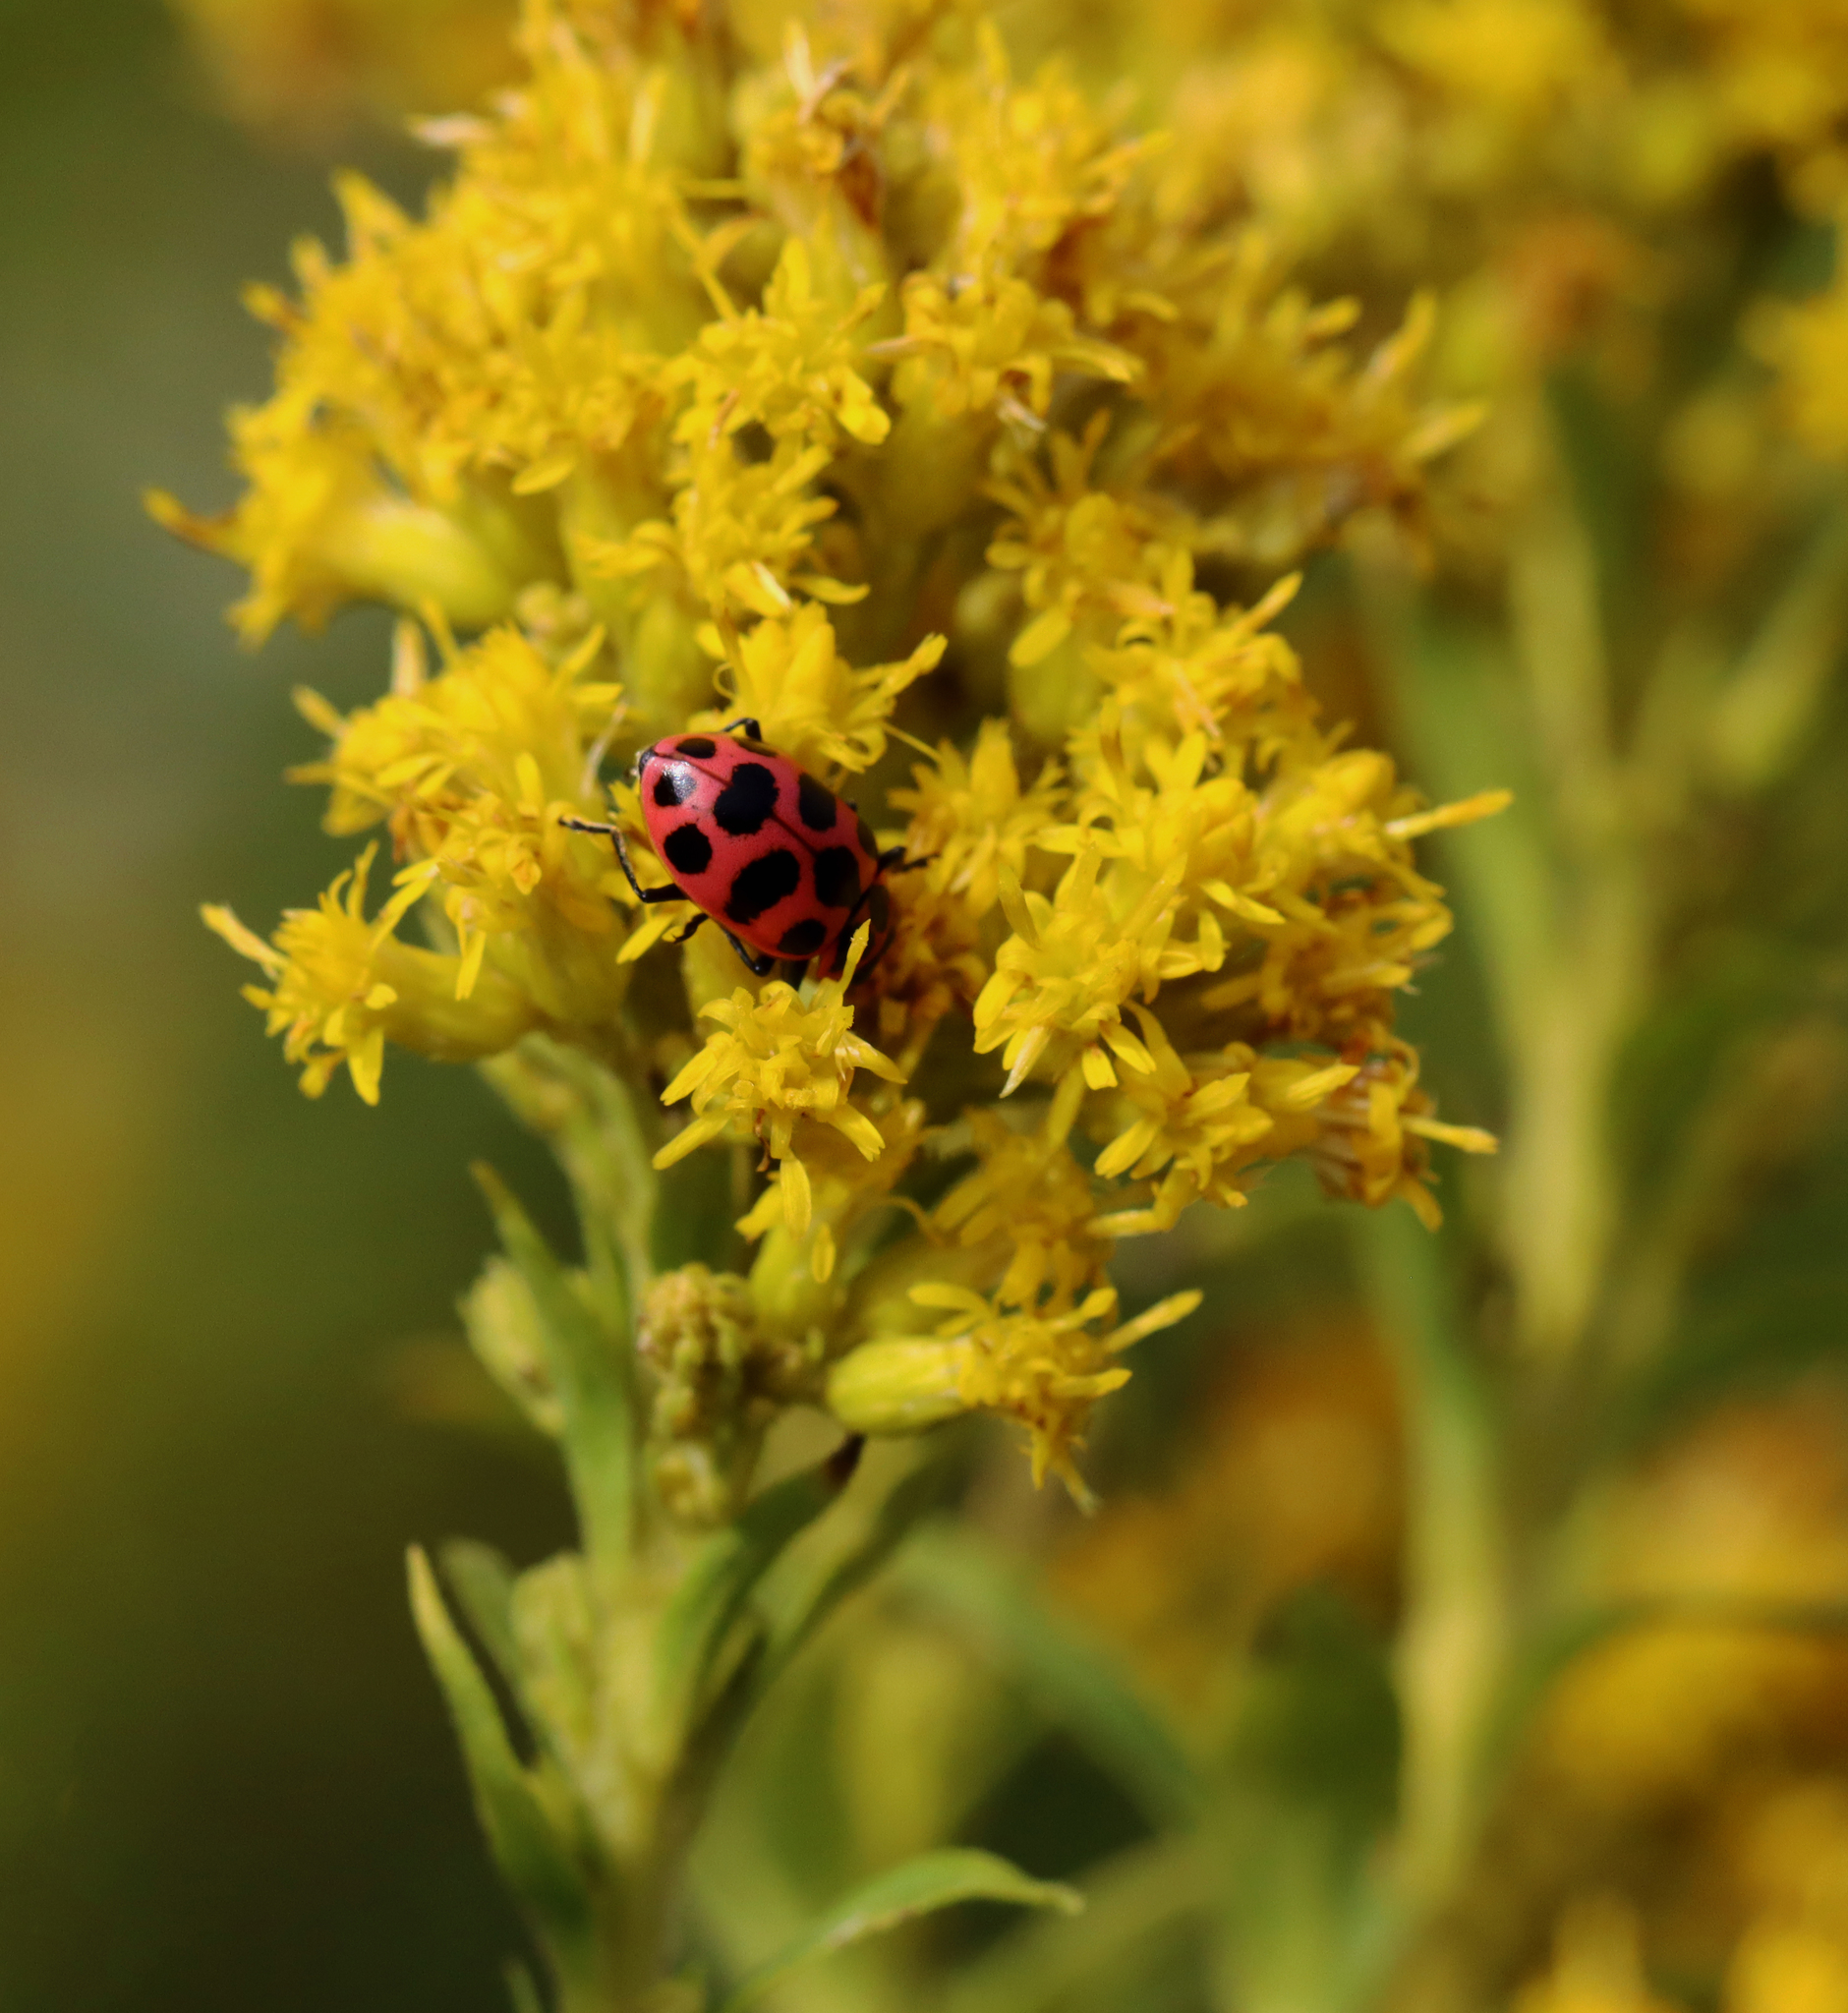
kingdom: Animalia
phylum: Arthropoda
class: Insecta
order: Coleoptera
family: Coccinellidae
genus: Coleomegilla
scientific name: Coleomegilla maculata
